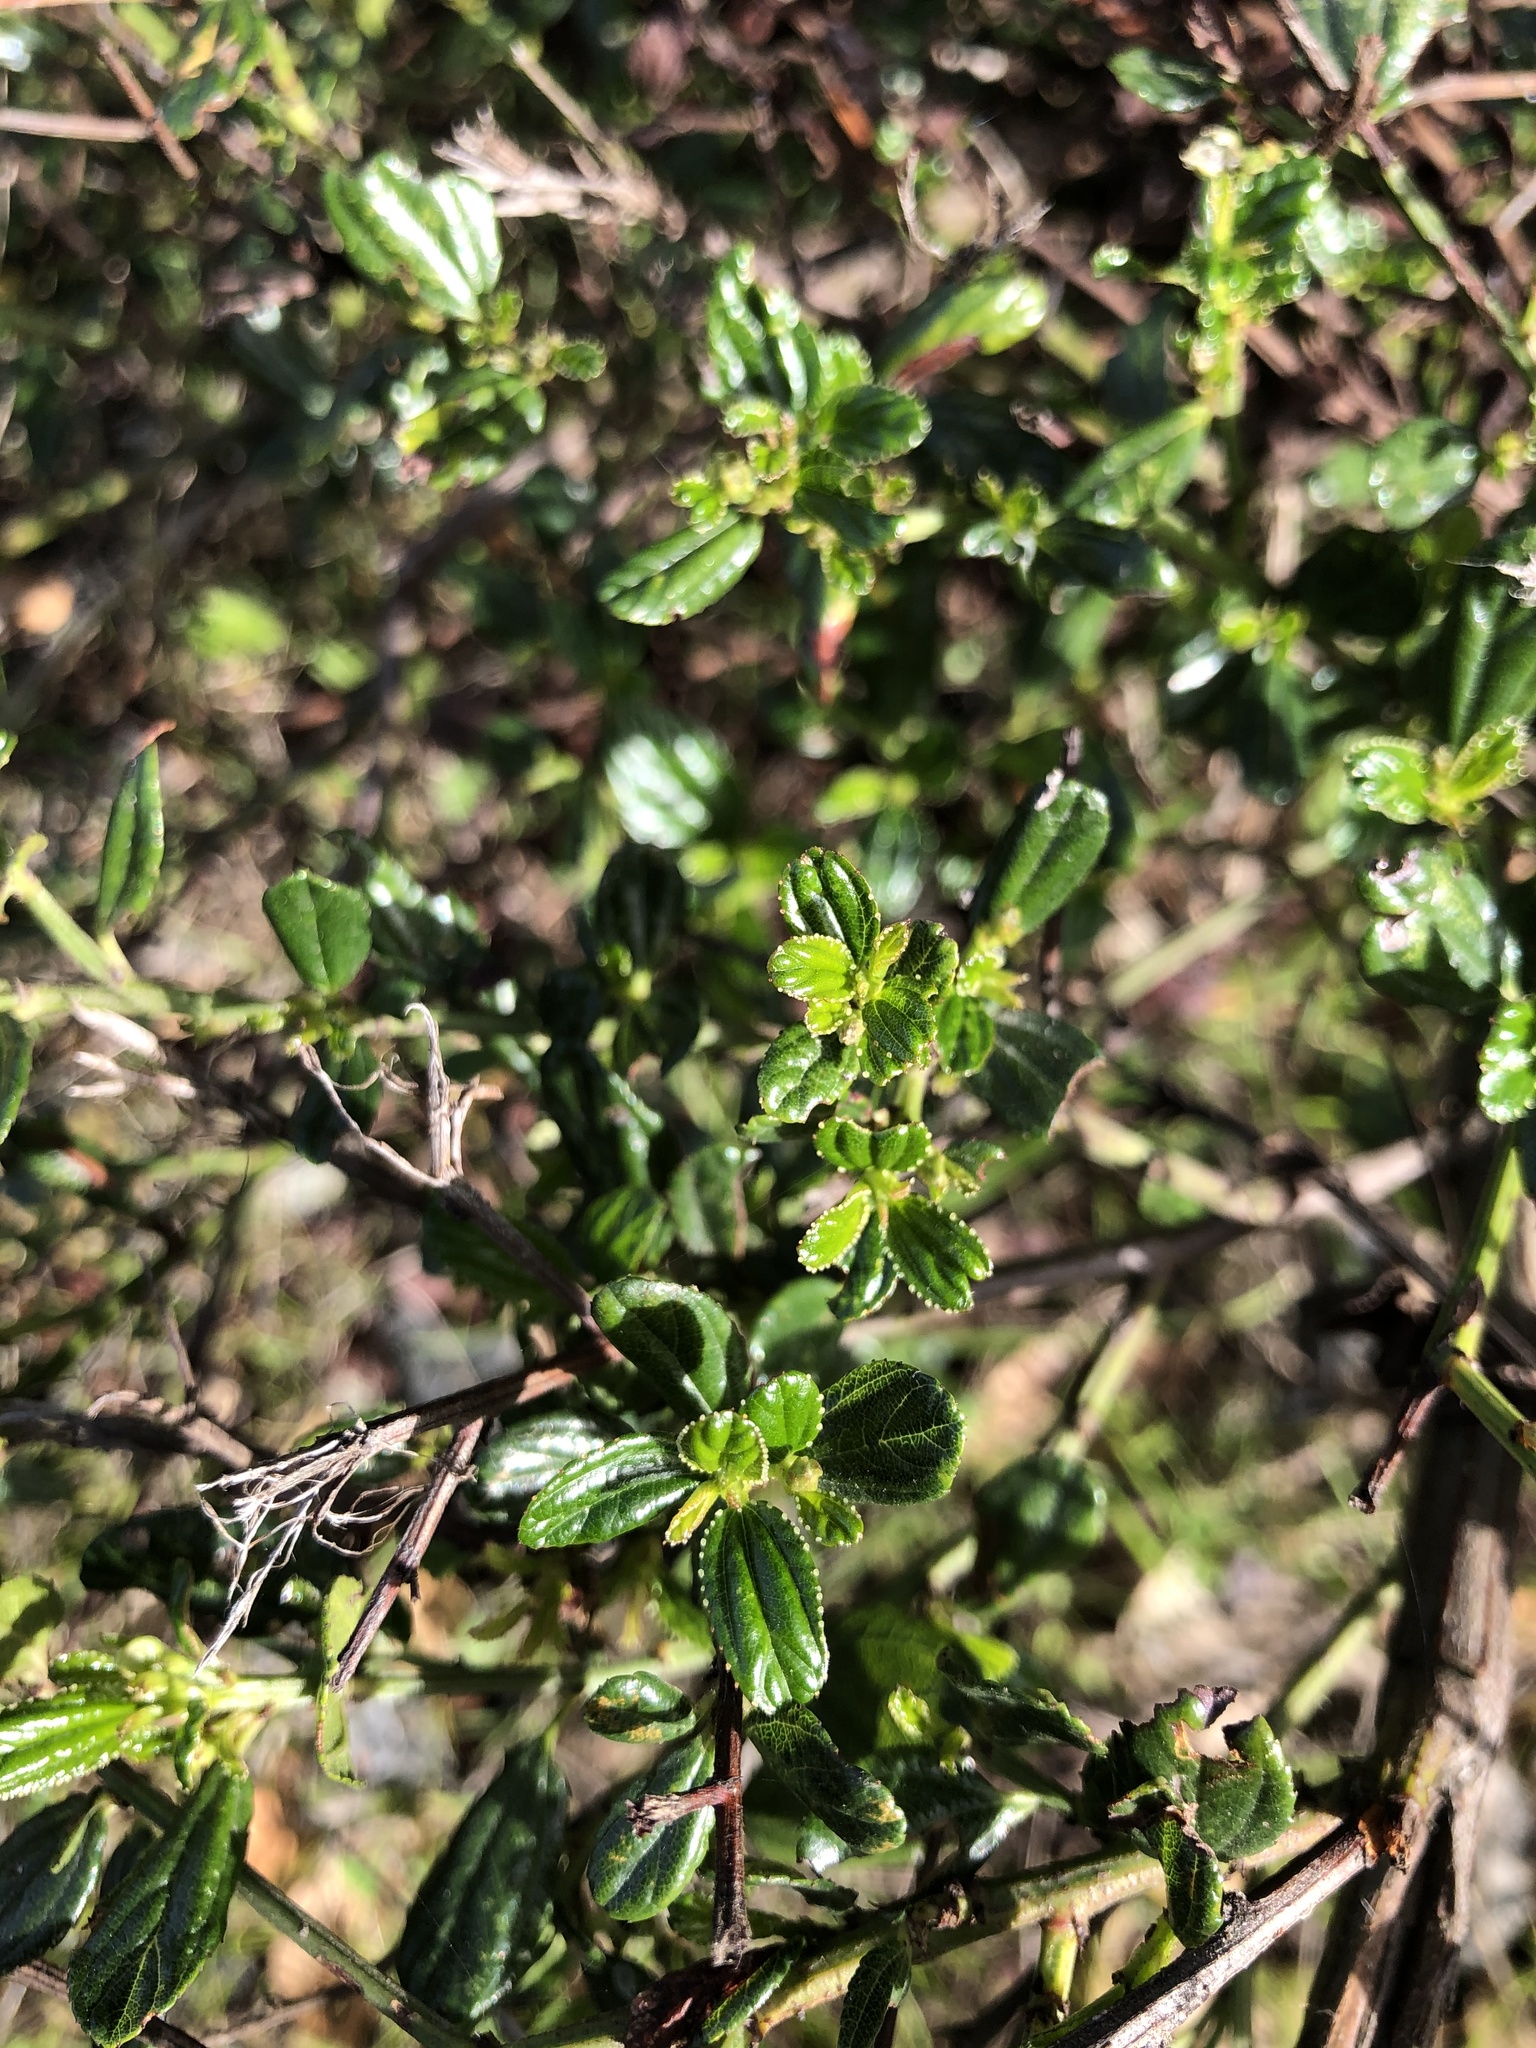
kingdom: Plantae
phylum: Tracheophyta
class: Magnoliopsida
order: Rosales
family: Rhamnaceae
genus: Ceanothus
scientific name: Ceanothus thyrsiflorus
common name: California-lilac
